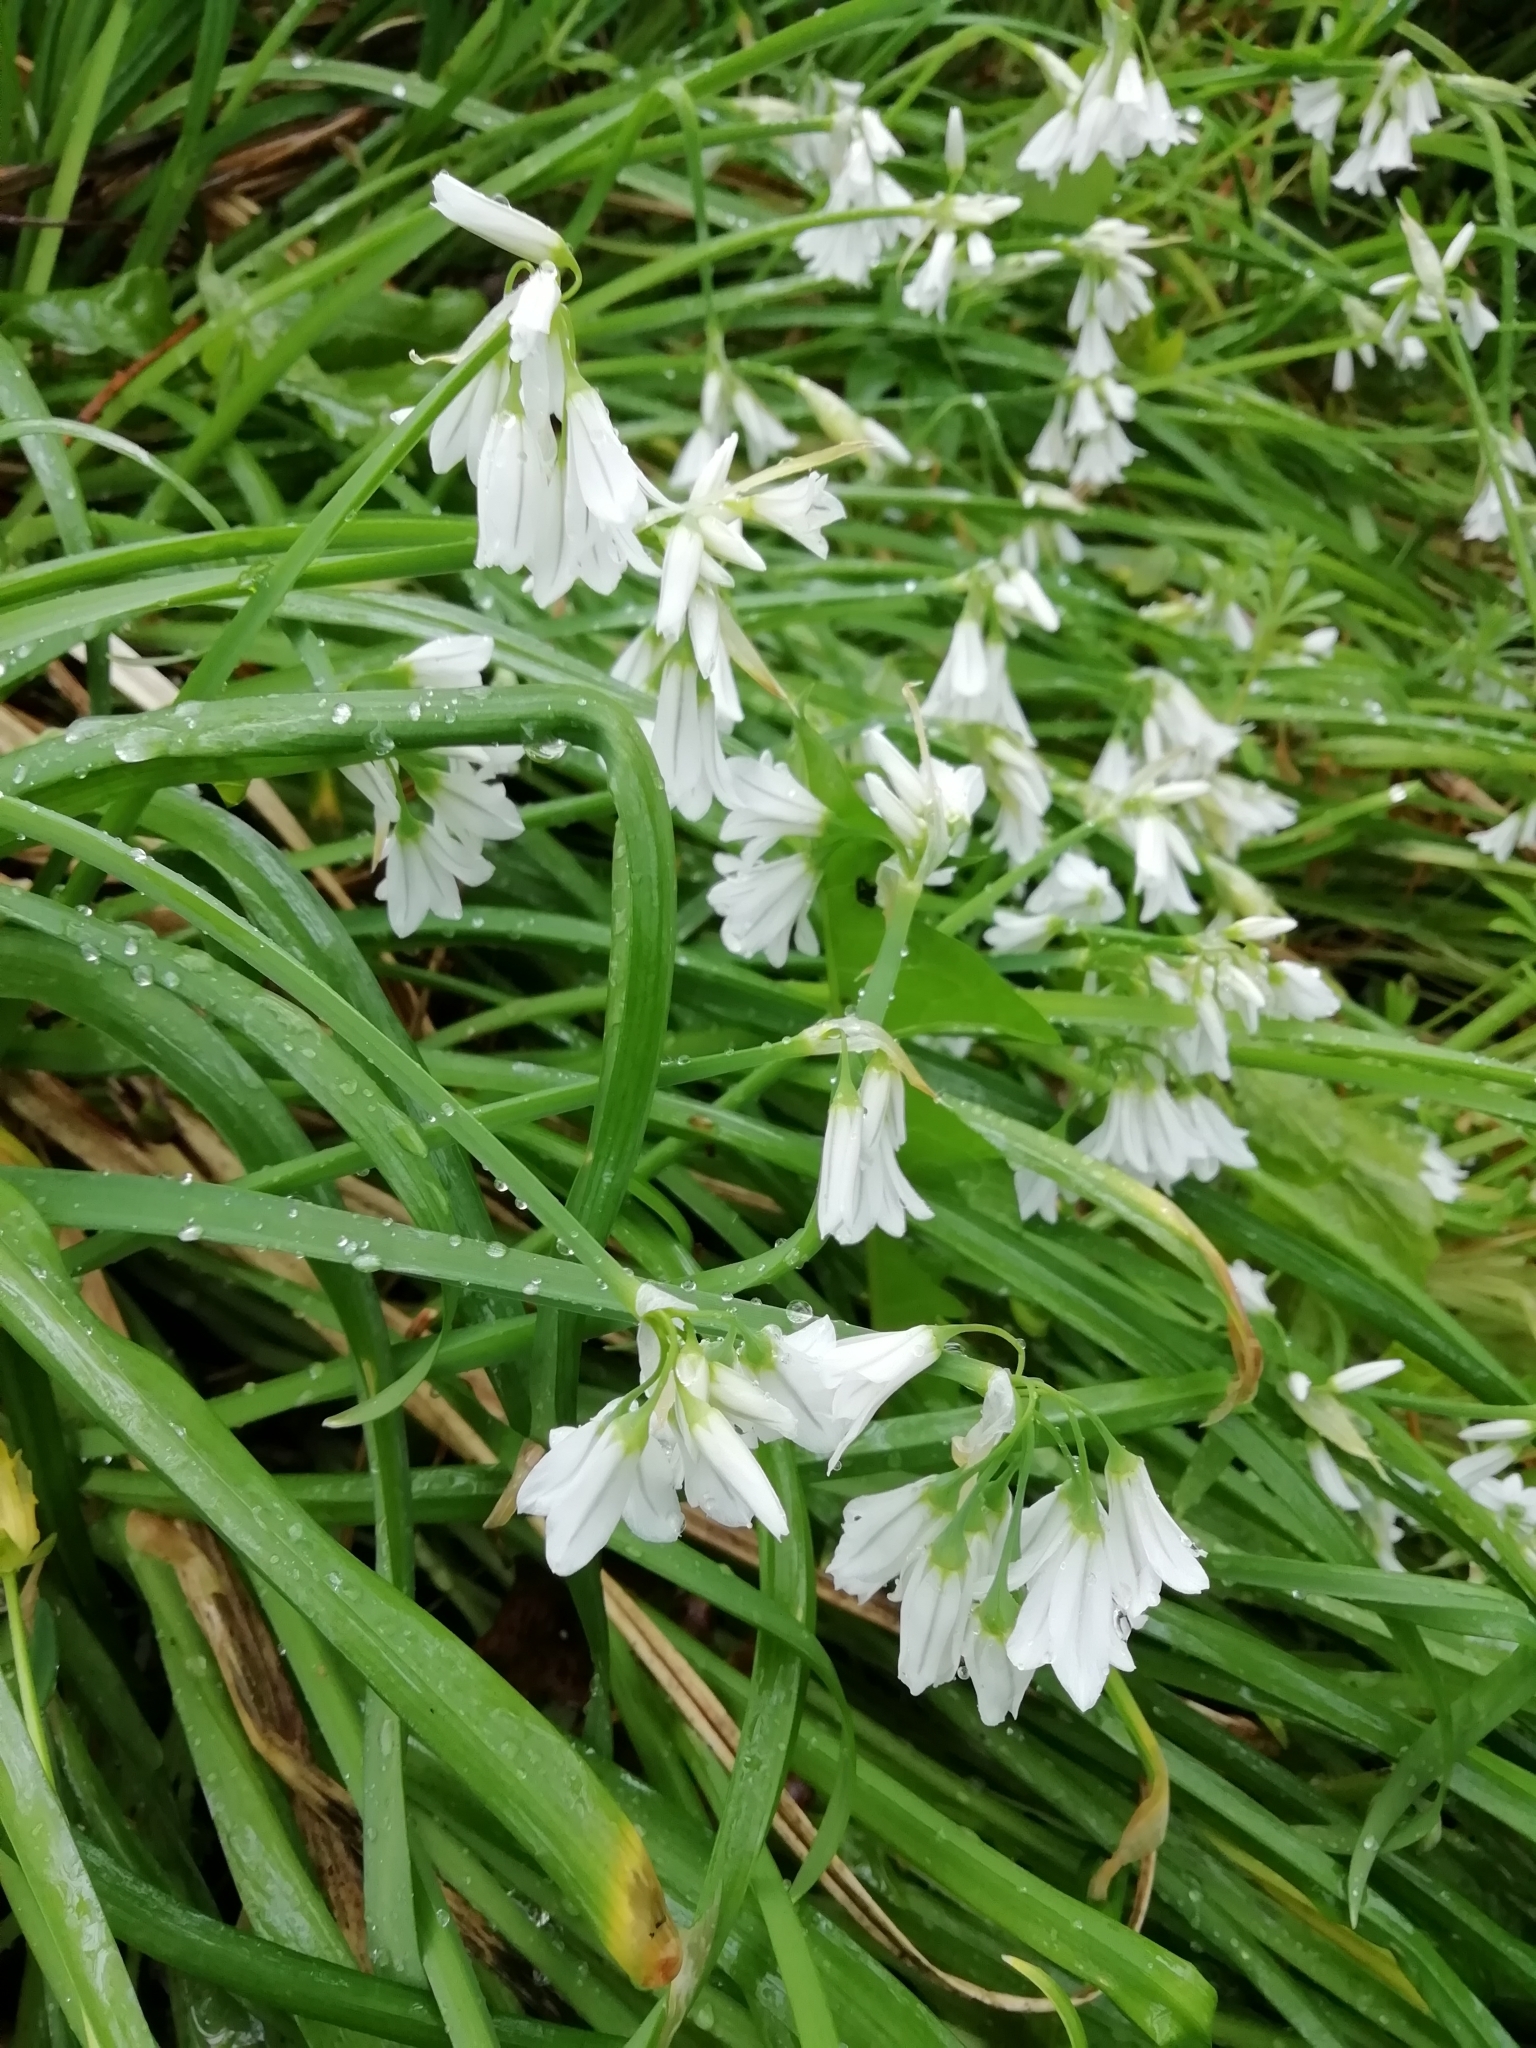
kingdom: Plantae
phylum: Tracheophyta
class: Liliopsida
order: Asparagales
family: Amaryllidaceae
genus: Allium
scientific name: Allium triquetrum
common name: Three-cornered garlic
